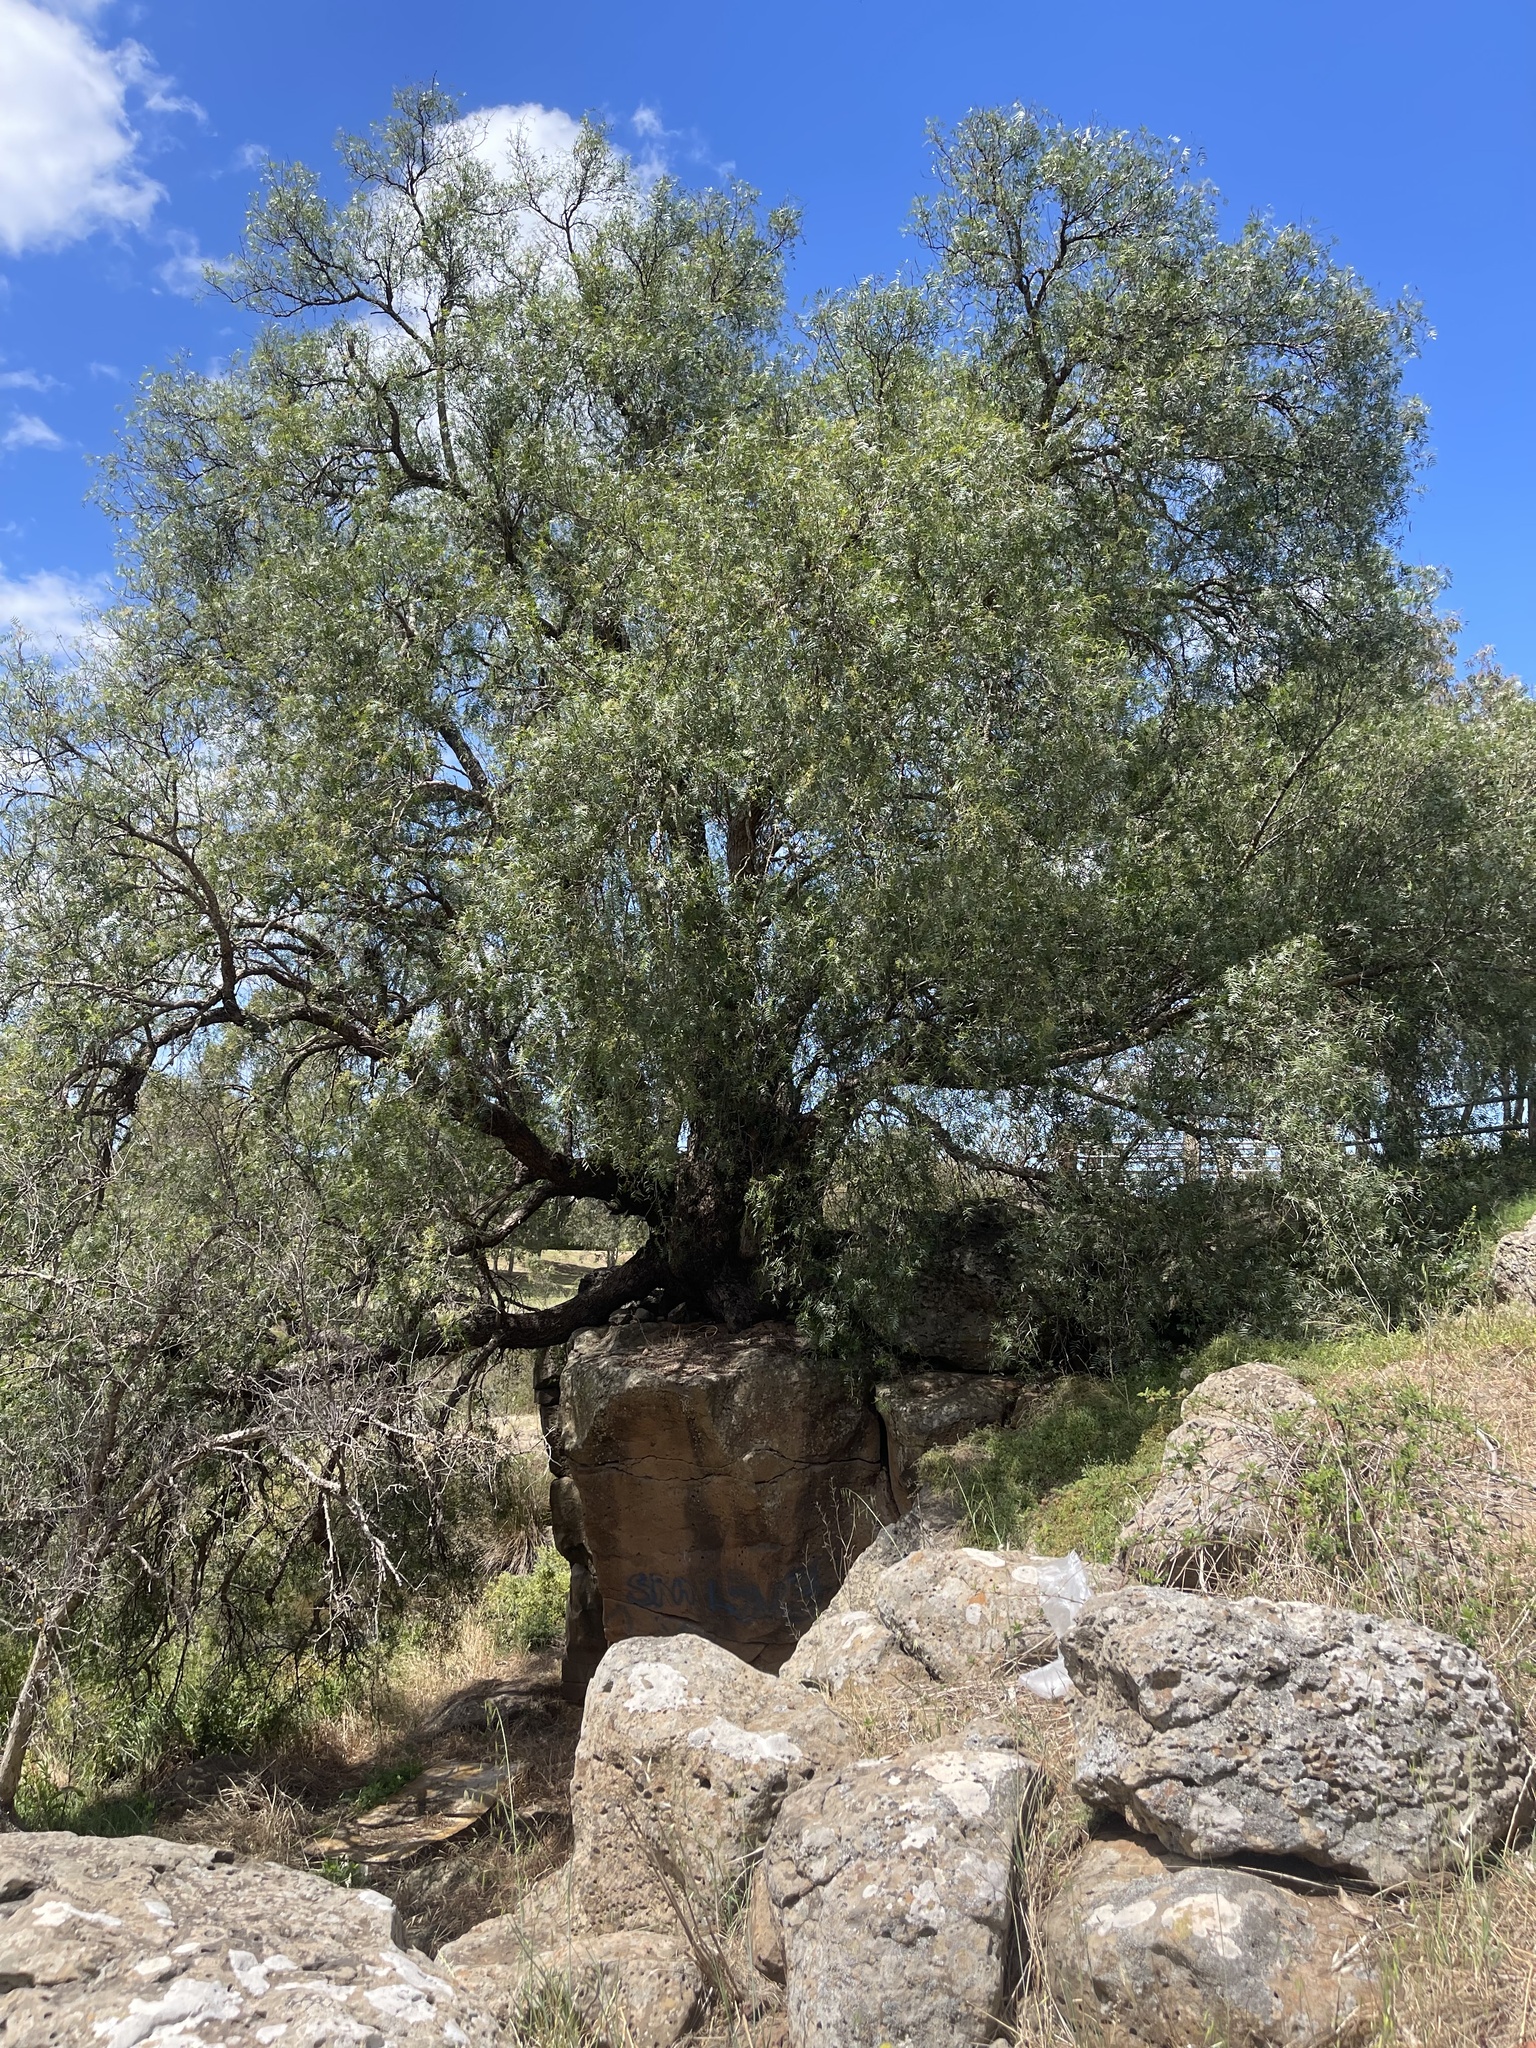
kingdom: Plantae
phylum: Tracheophyta
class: Magnoliopsida
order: Sapindales
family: Anacardiaceae
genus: Schinus
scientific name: Schinus molle
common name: Peruvian peppertree
